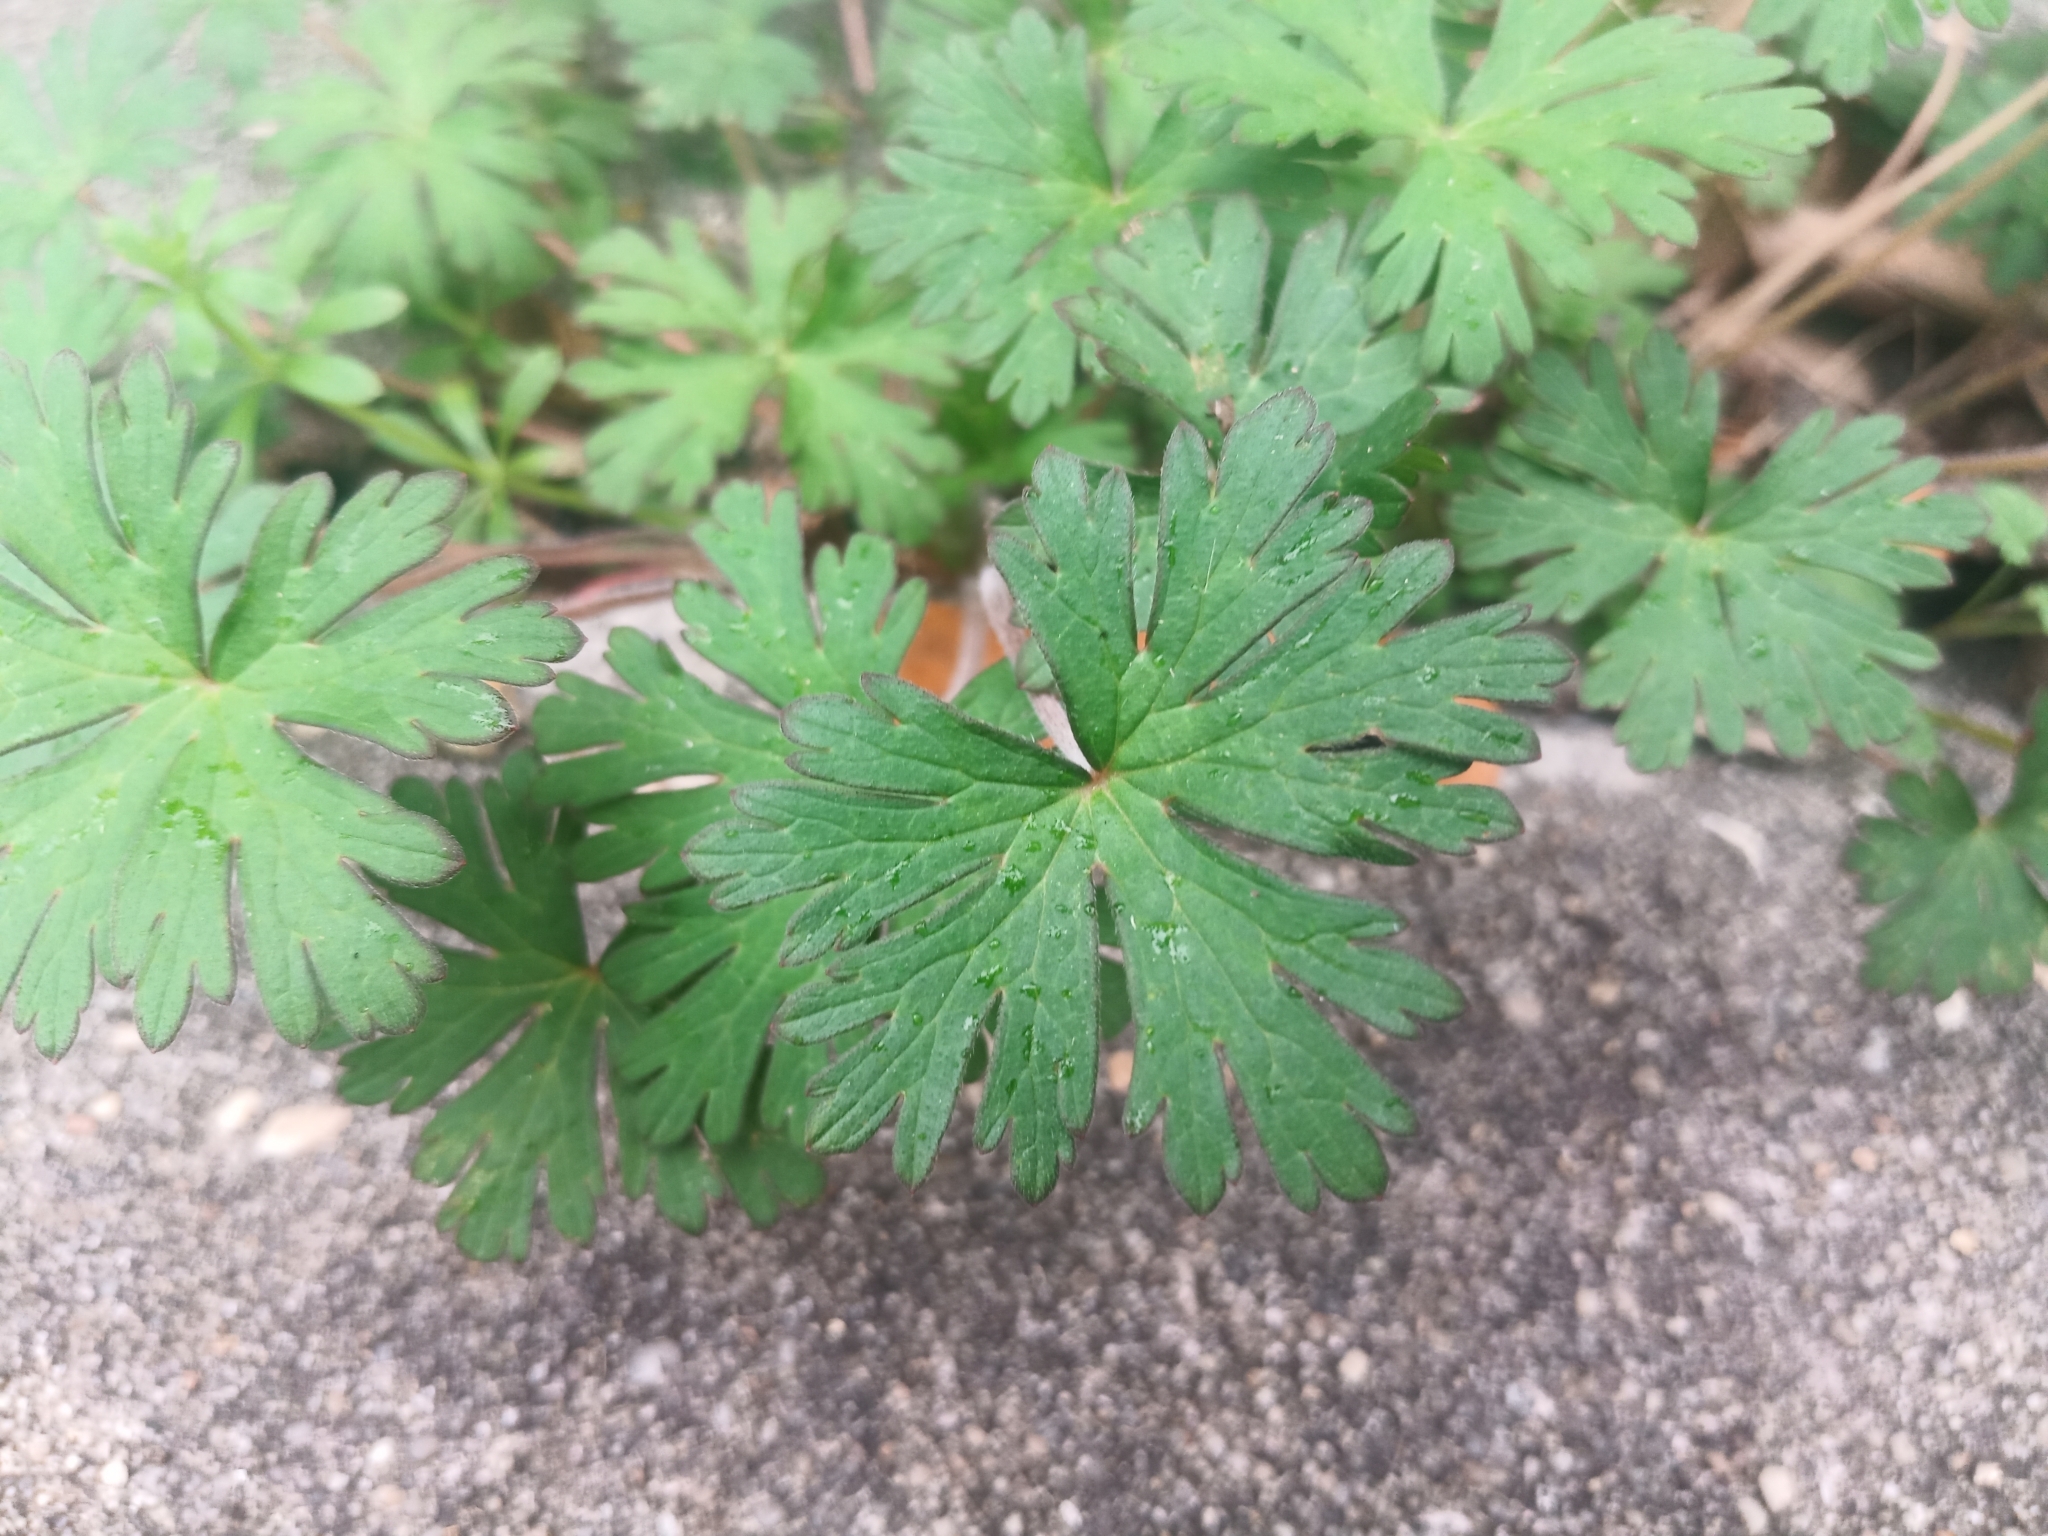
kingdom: Plantae
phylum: Tracheophyta
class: Magnoliopsida
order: Geraniales
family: Geraniaceae
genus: Geranium
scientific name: Geranium carolinianum
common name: Carolina crane's-bill
